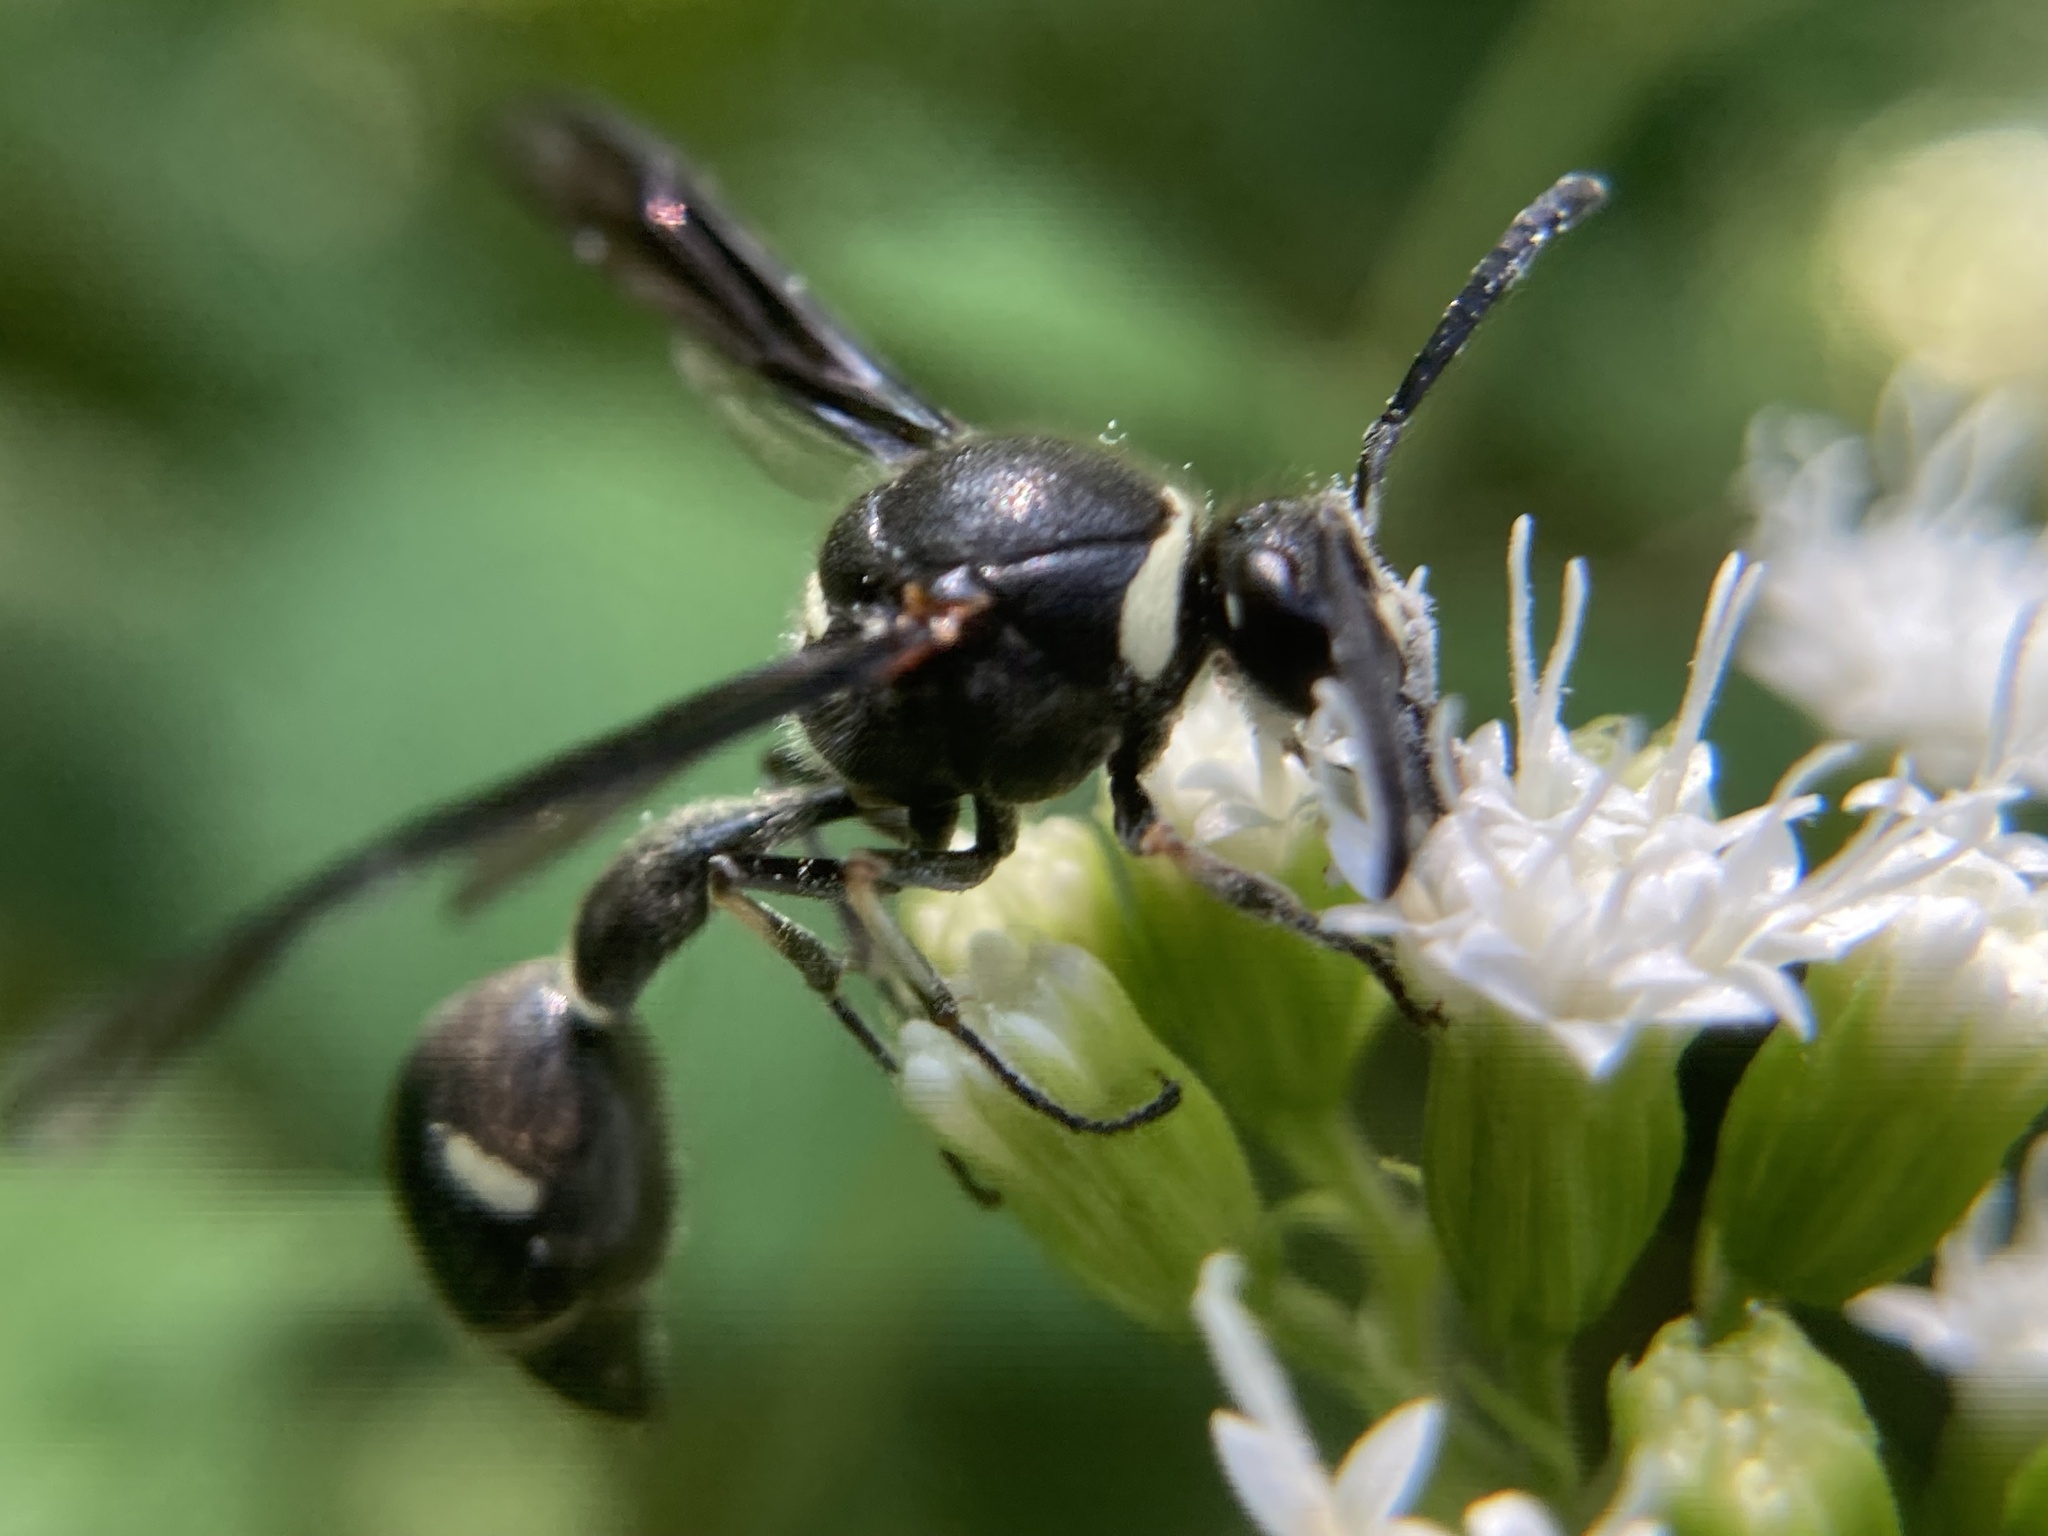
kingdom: Animalia
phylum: Arthropoda
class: Insecta
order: Hymenoptera
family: Vespidae
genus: Eumenes
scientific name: Eumenes fraternus
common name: Fraternal potter wasp
